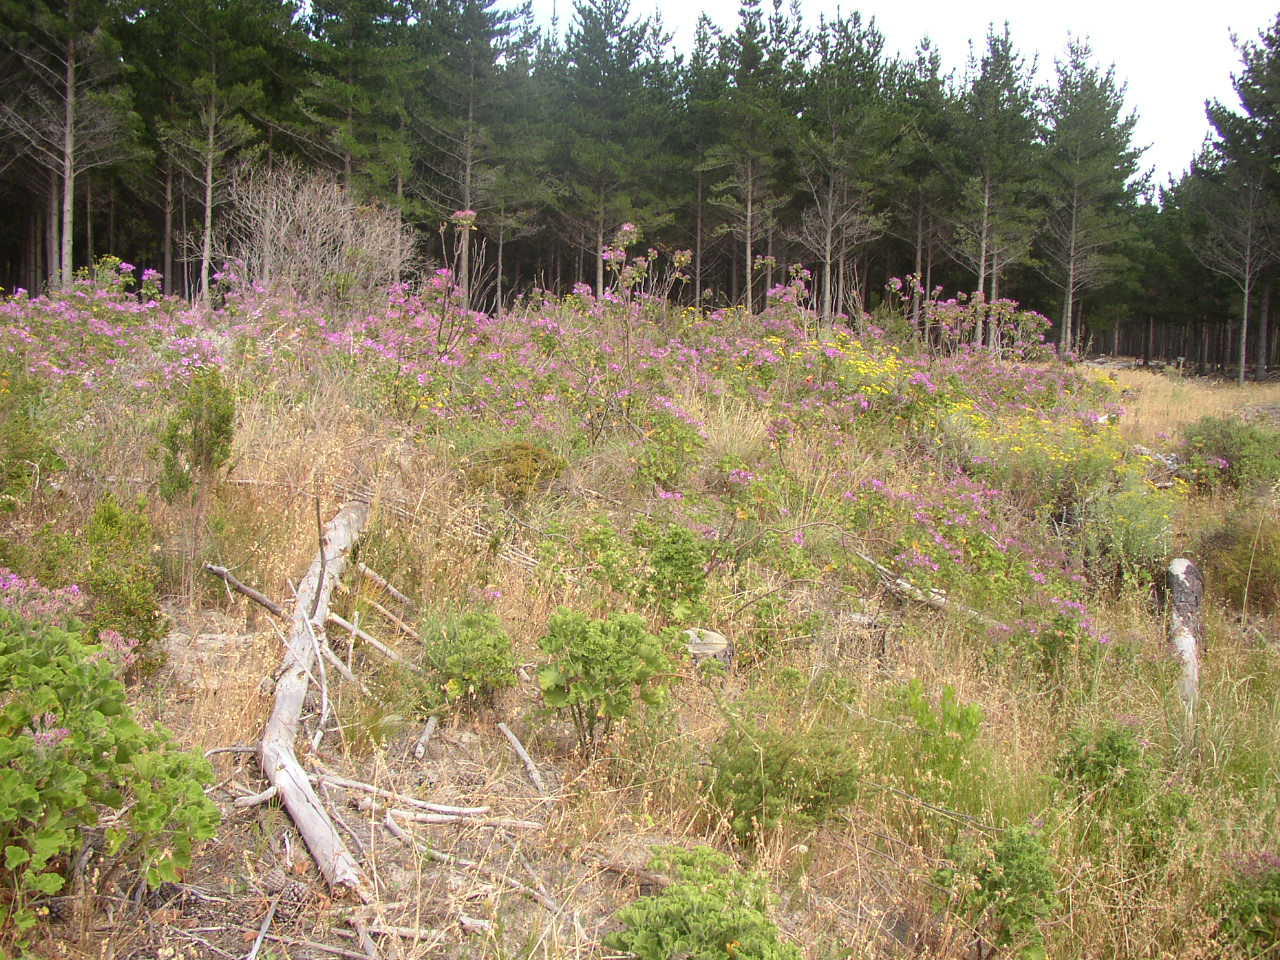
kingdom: Plantae
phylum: Tracheophyta
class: Magnoliopsida
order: Geraniales
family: Geraniaceae
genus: Pelargonium
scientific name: Pelargonium cucullatum
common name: Tree pelargonium
